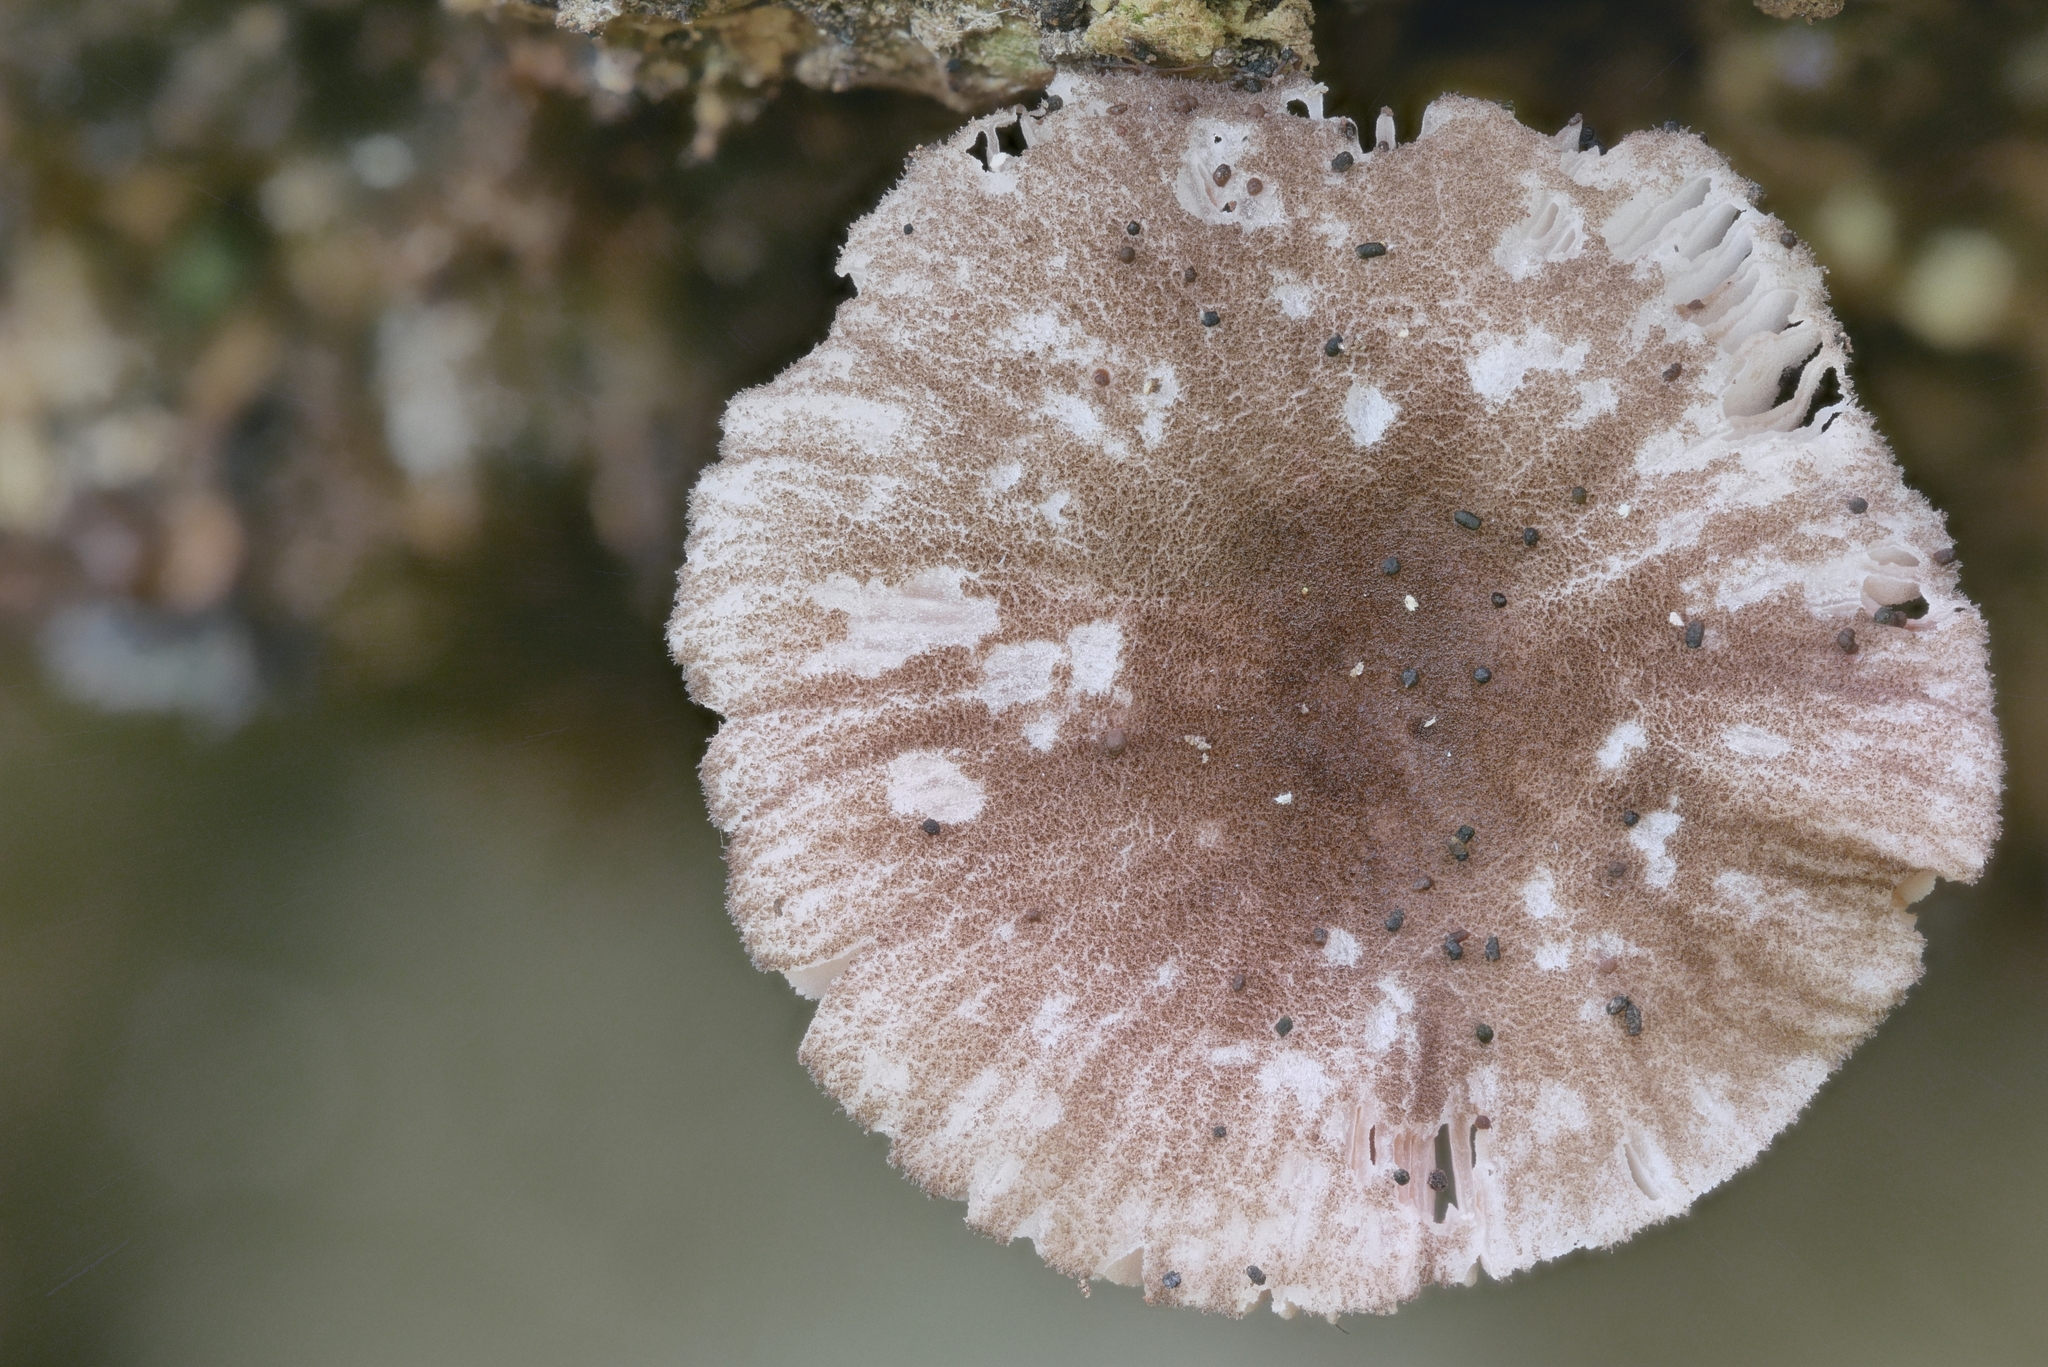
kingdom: Fungi
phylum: Basidiomycota
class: Agaricomycetes
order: Agaricales
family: Pluteaceae
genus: Pluteus
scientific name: Pluteus podospileus
